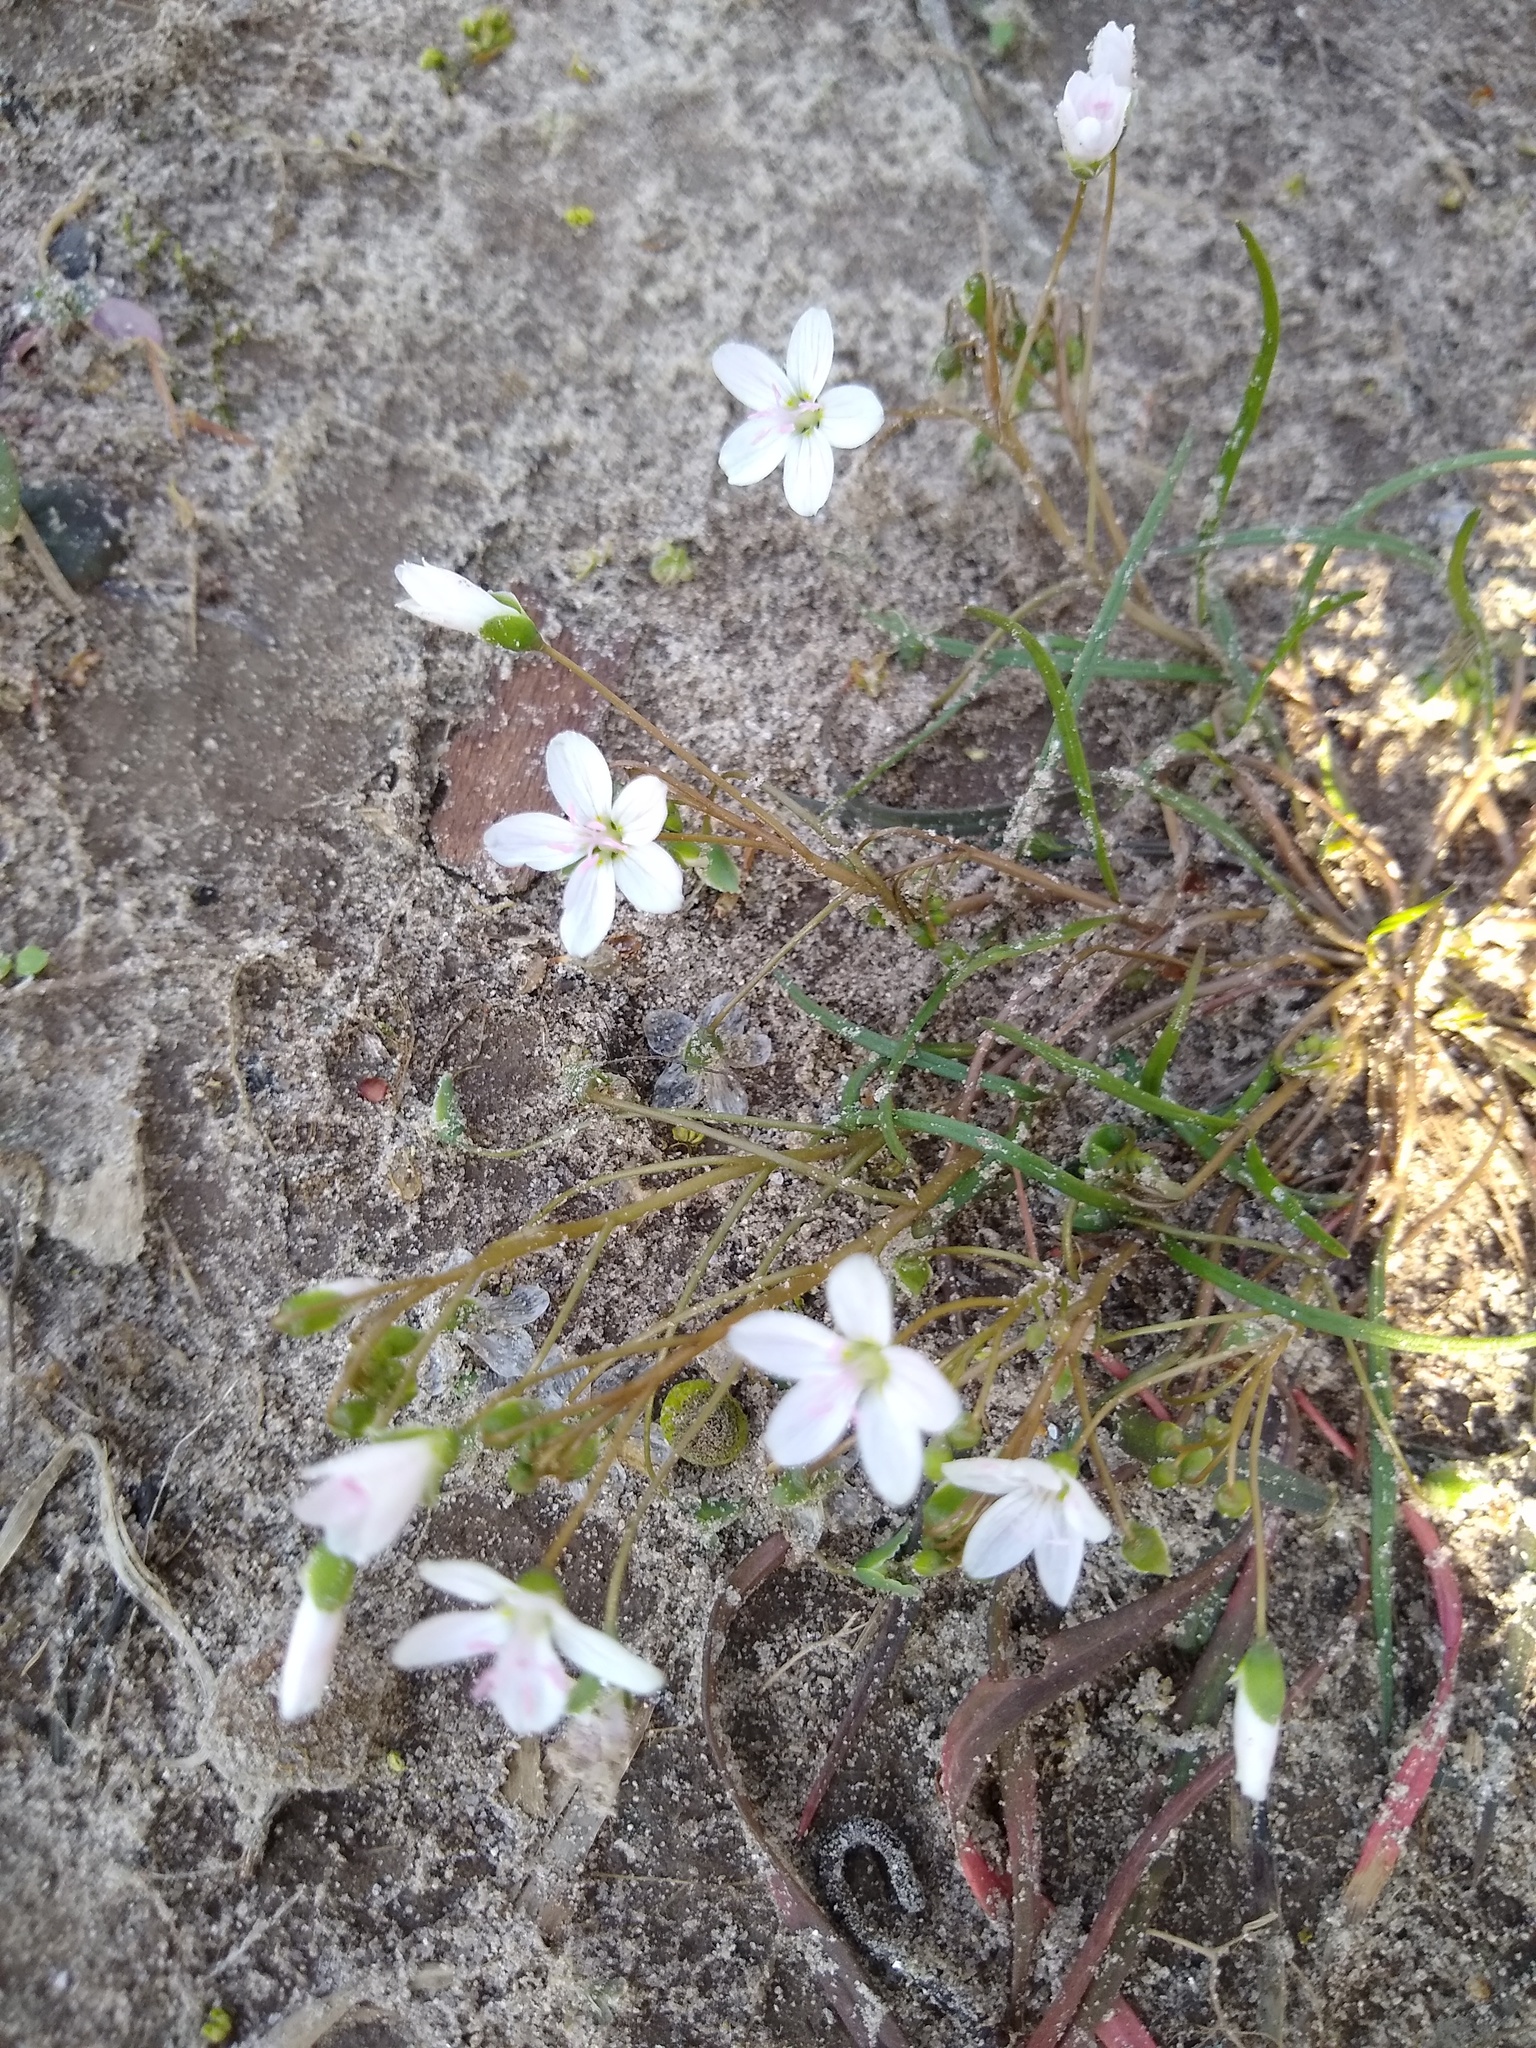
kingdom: Plantae
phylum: Tracheophyta
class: Magnoliopsida
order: Caryophyllales
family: Montiaceae
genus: Claytonia
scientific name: Claytonia virginica
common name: Virginia springbeauty
